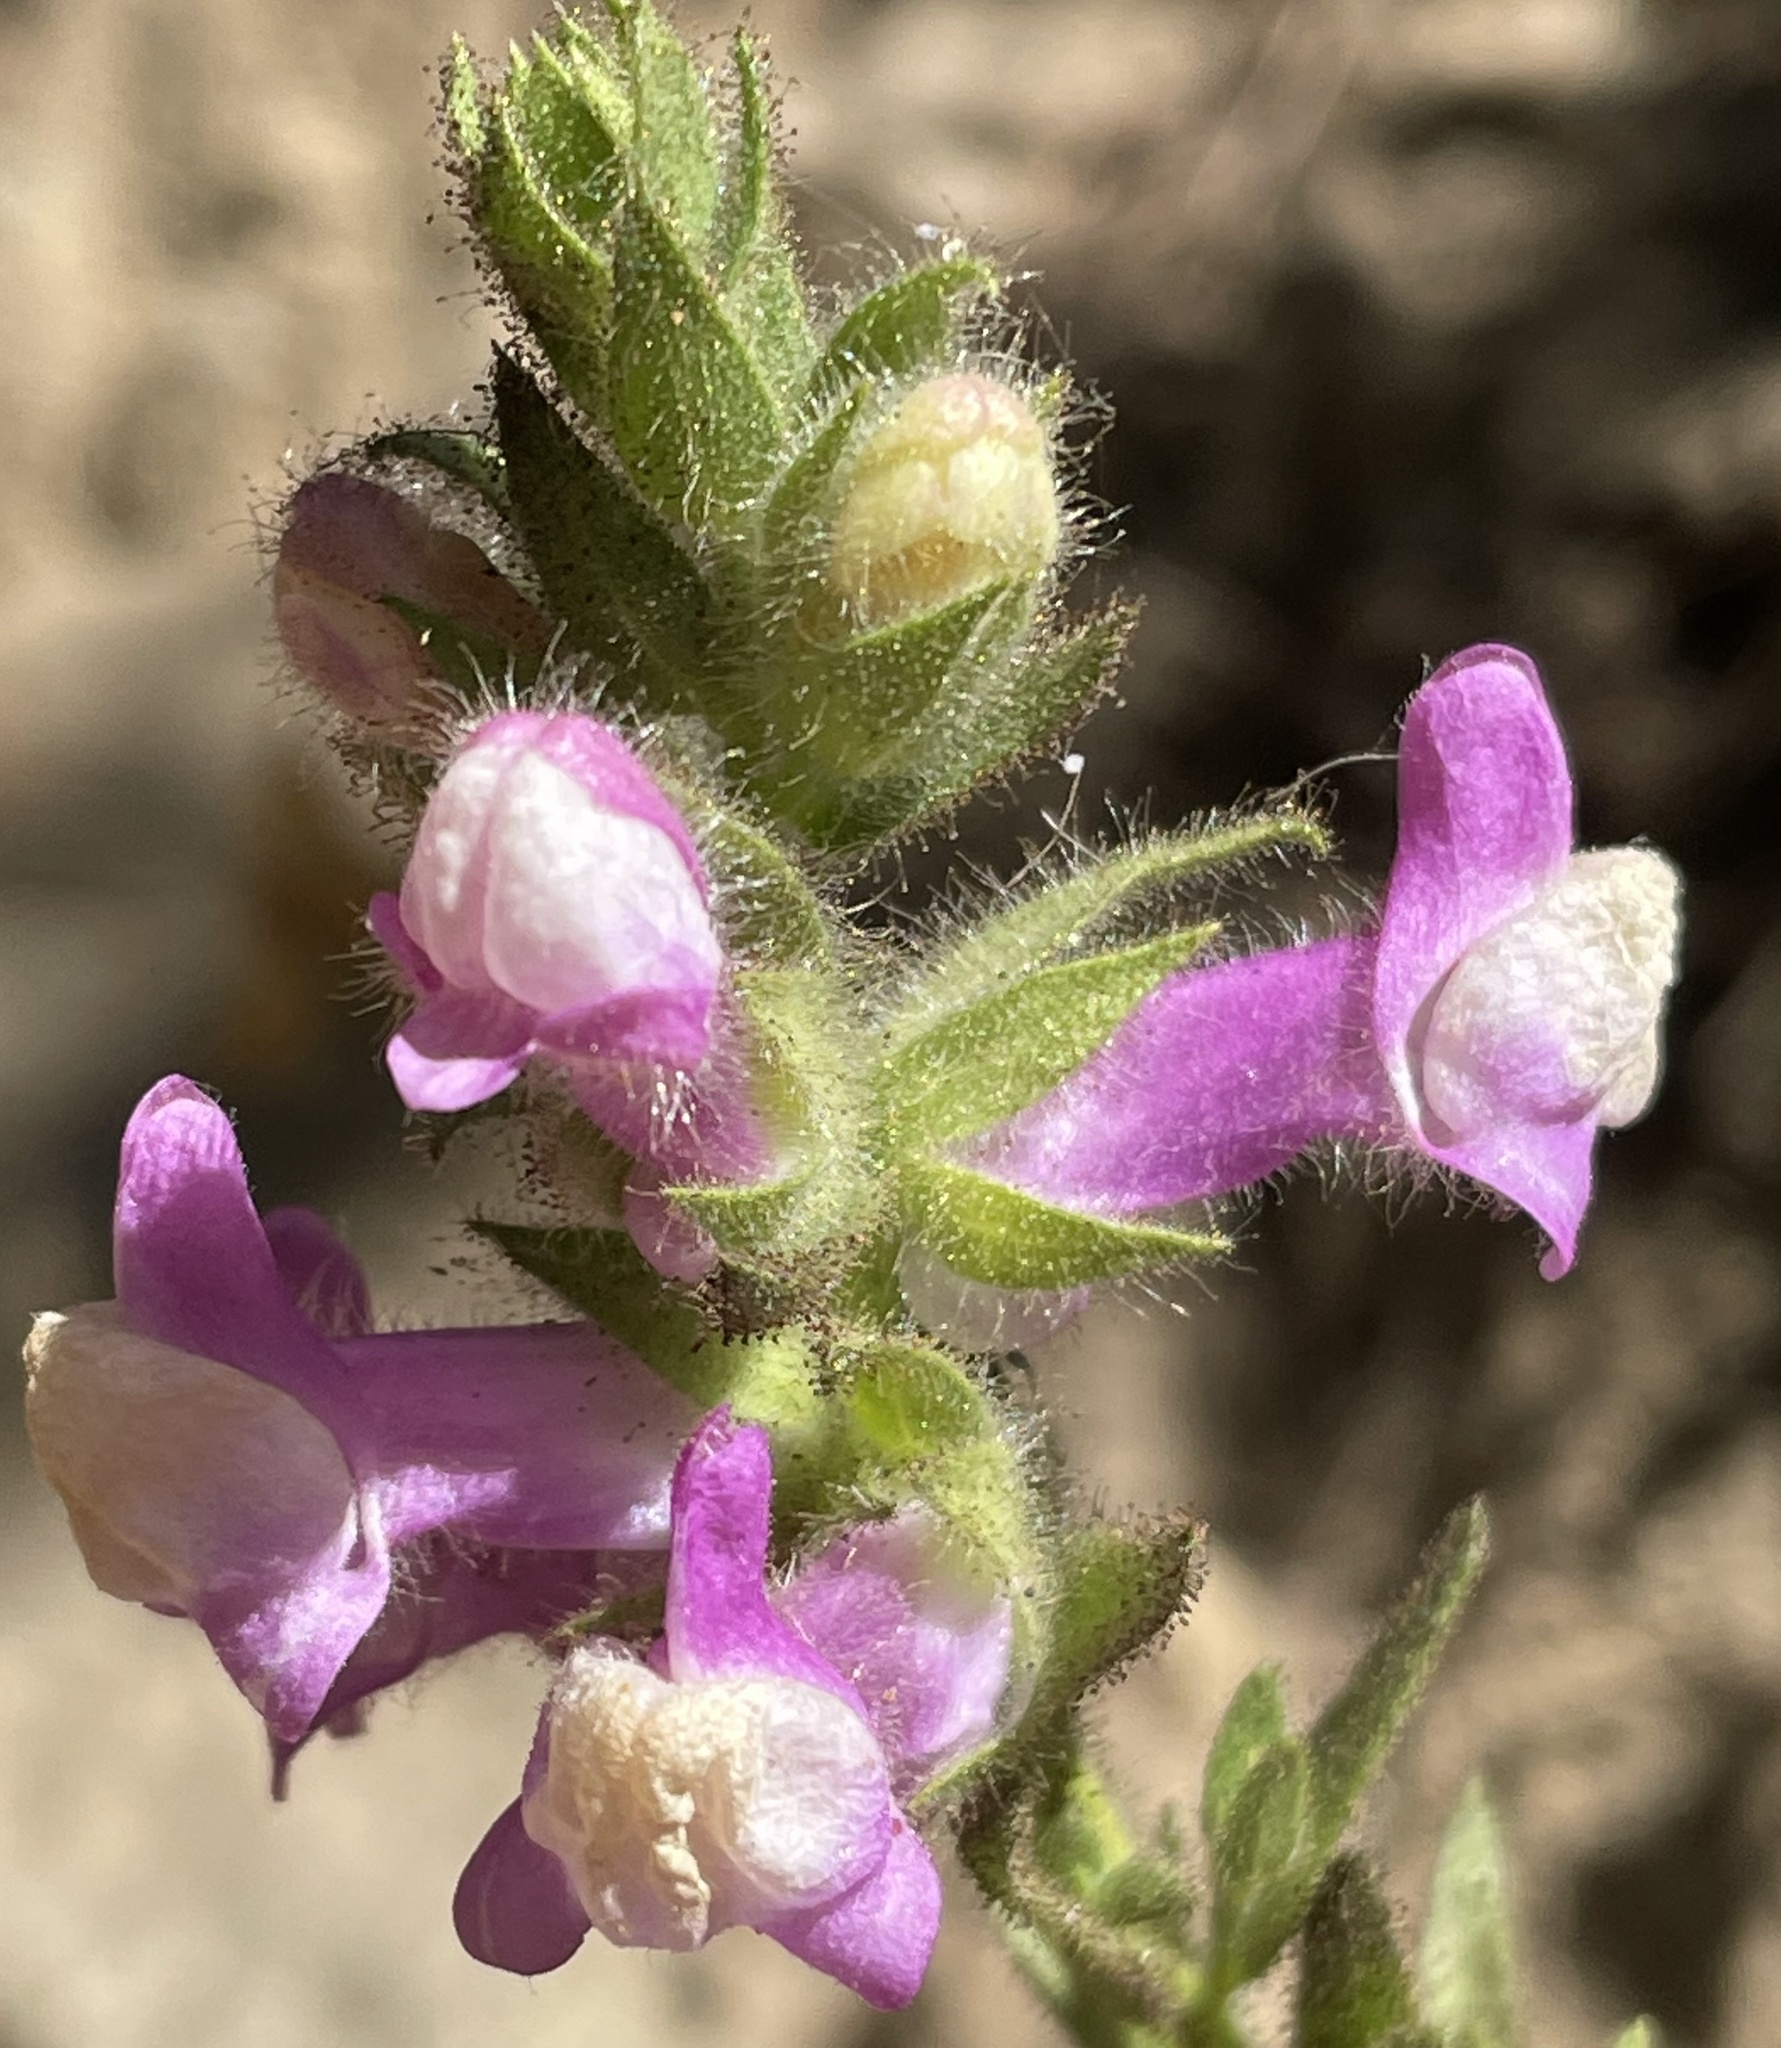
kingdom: Plantae
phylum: Tracheophyta
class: Magnoliopsida
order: Lamiales
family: Plantaginaceae
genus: Sairocarpus
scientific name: Sairocarpus multiflorus
